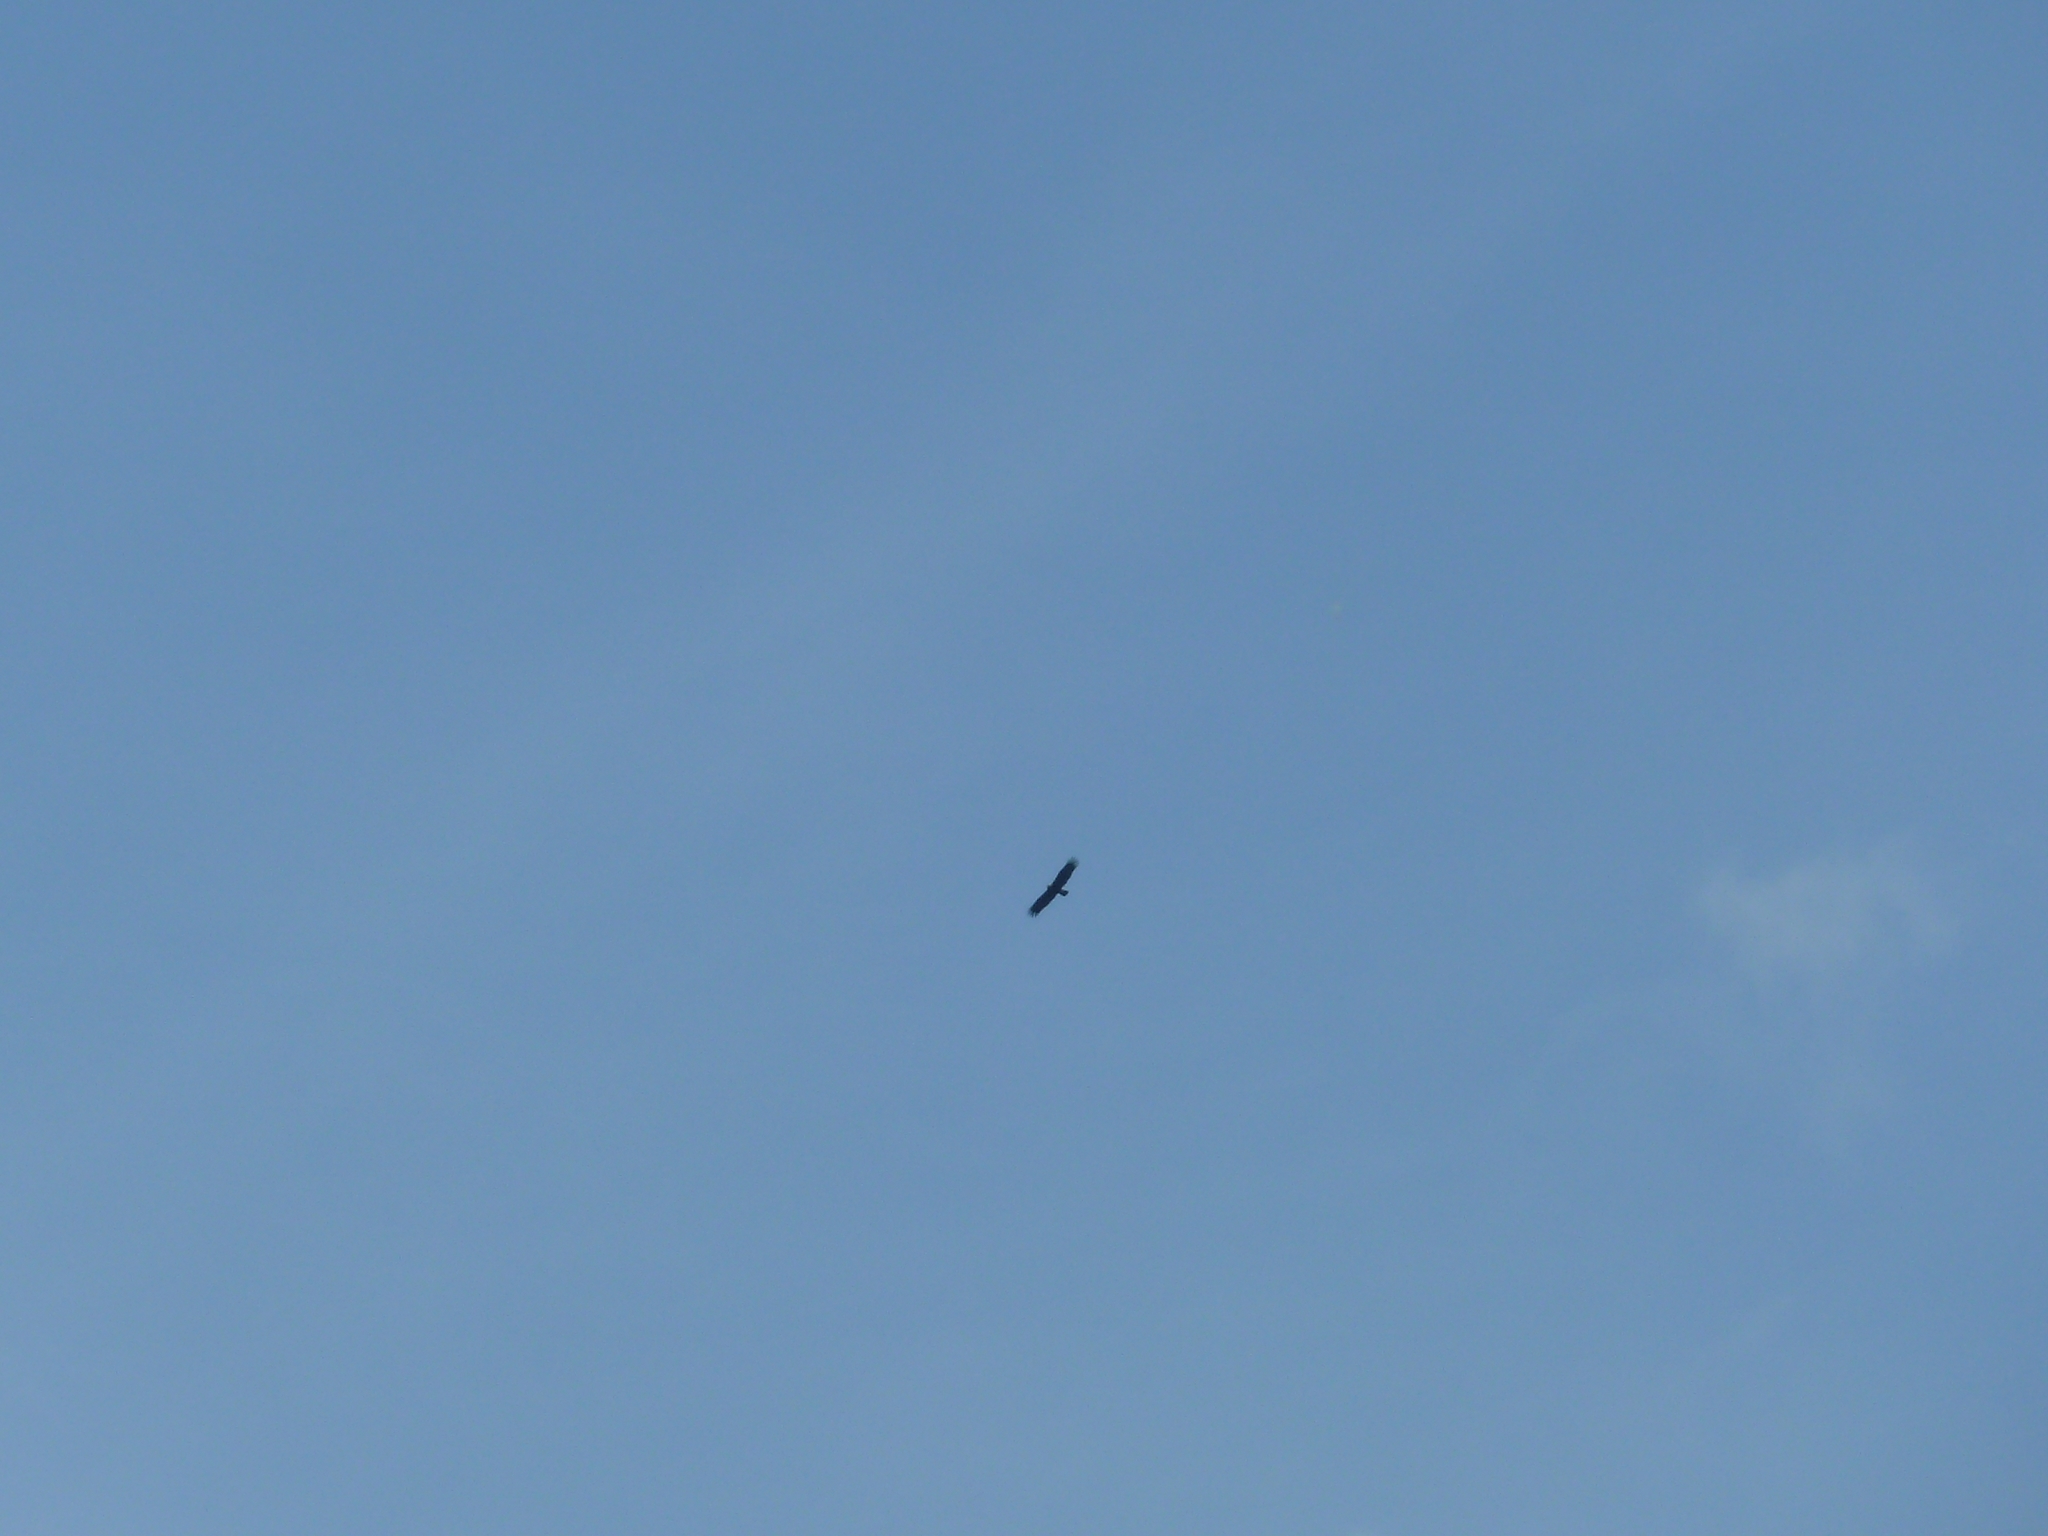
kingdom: Animalia
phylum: Chordata
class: Aves
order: Accipitriformes
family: Accipitridae
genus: Aquila
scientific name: Aquila heliaca
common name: Eastern imperial eagle
